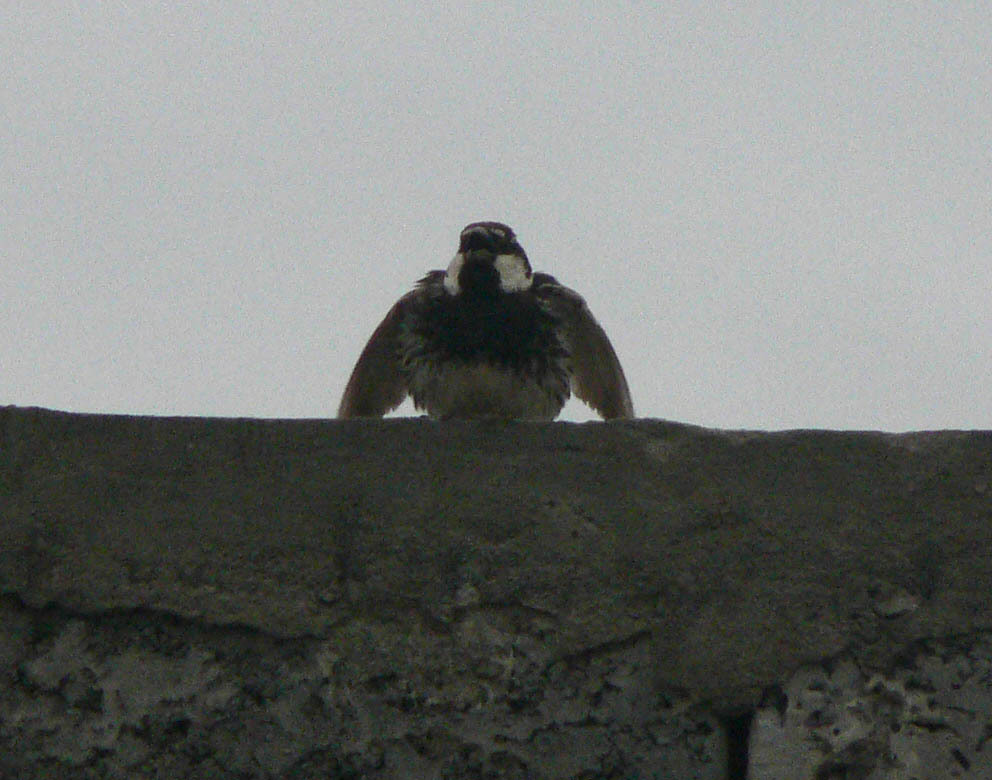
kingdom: Animalia
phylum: Chordata
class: Aves
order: Passeriformes
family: Passeridae
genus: Passer
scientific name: Passer hispaniolensis
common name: Spanish sparrow
